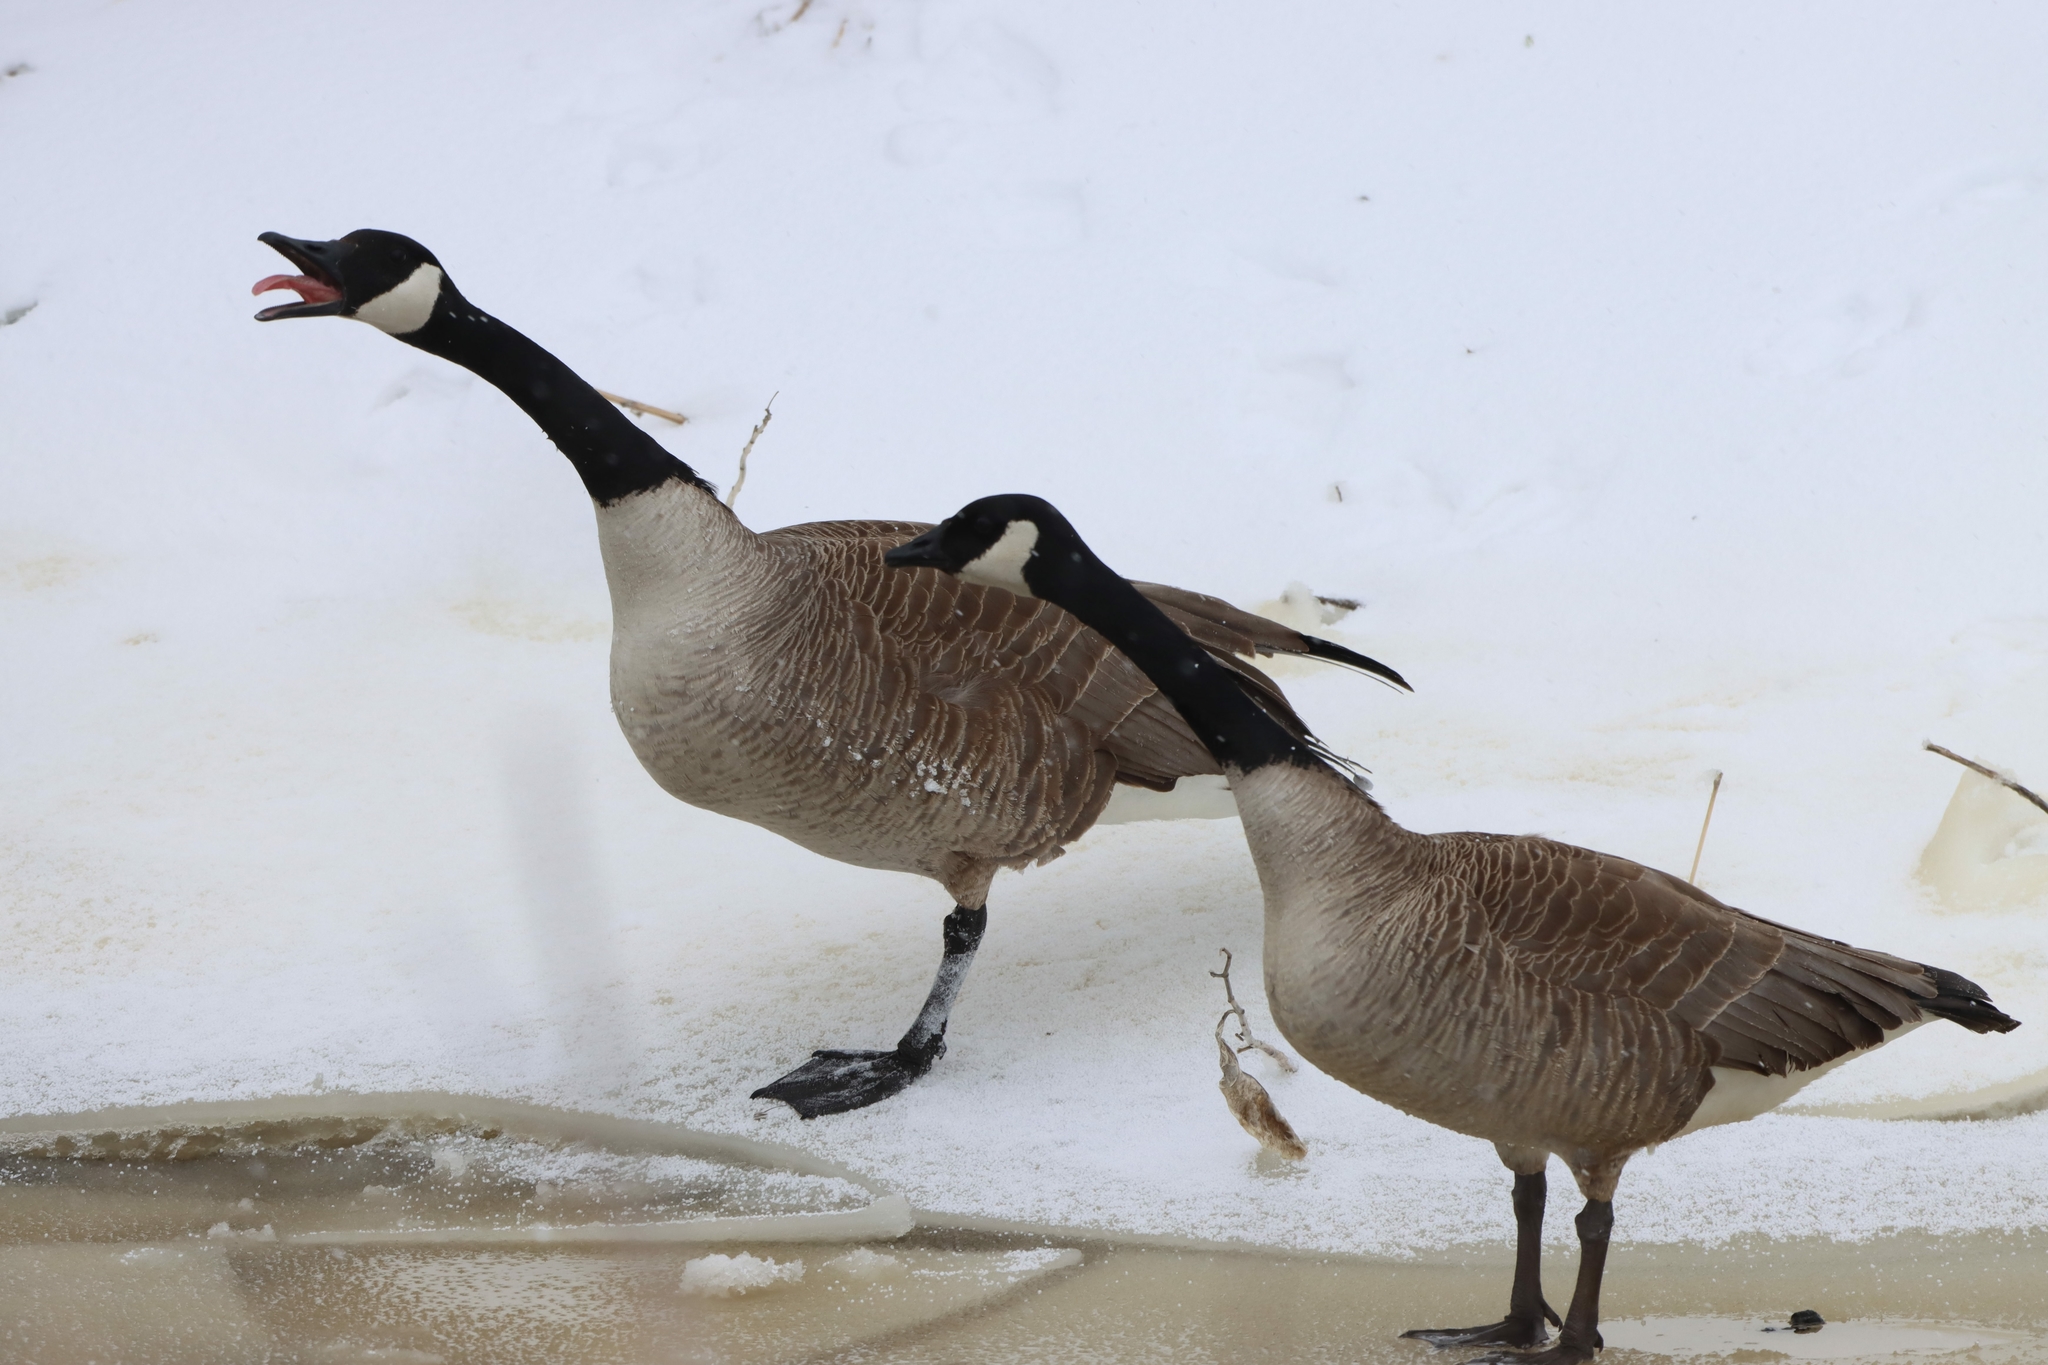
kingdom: Animalia
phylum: Chordata
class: Aves
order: Anseriformes
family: Anatidae
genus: Branta
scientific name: Branta canadensis
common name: Canada goose
